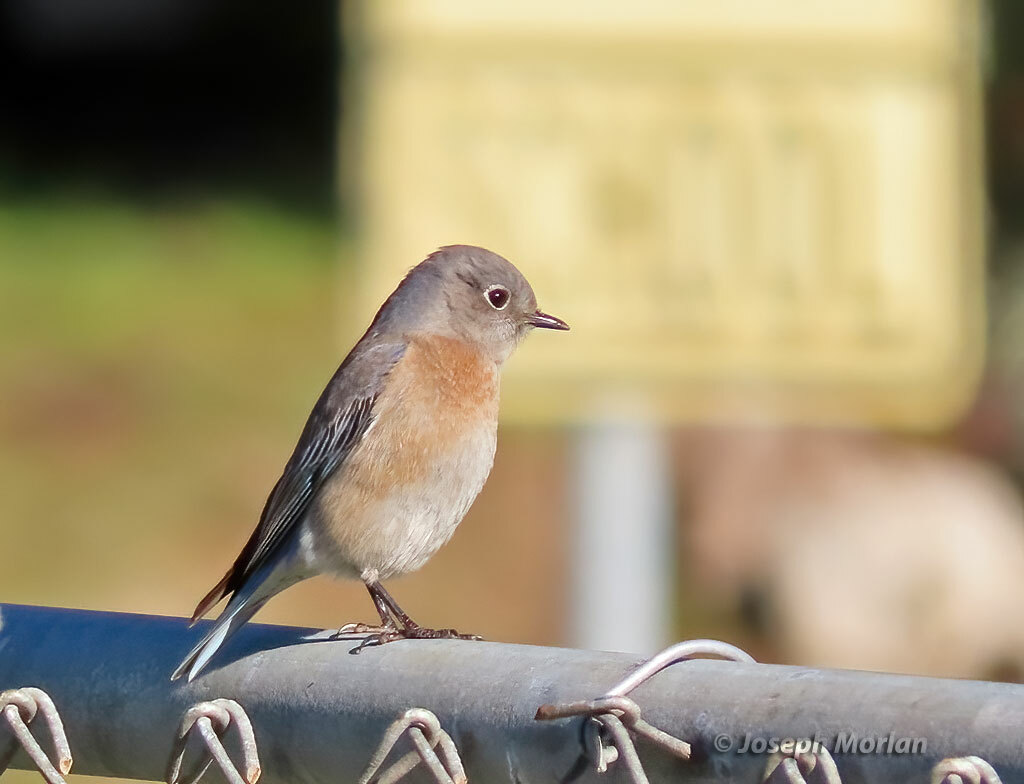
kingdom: Animalia
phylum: Chordata
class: Aves
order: Passeriformes
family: Turdidae
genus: Sialia
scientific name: Sialia mexicana
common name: Western bluebird
